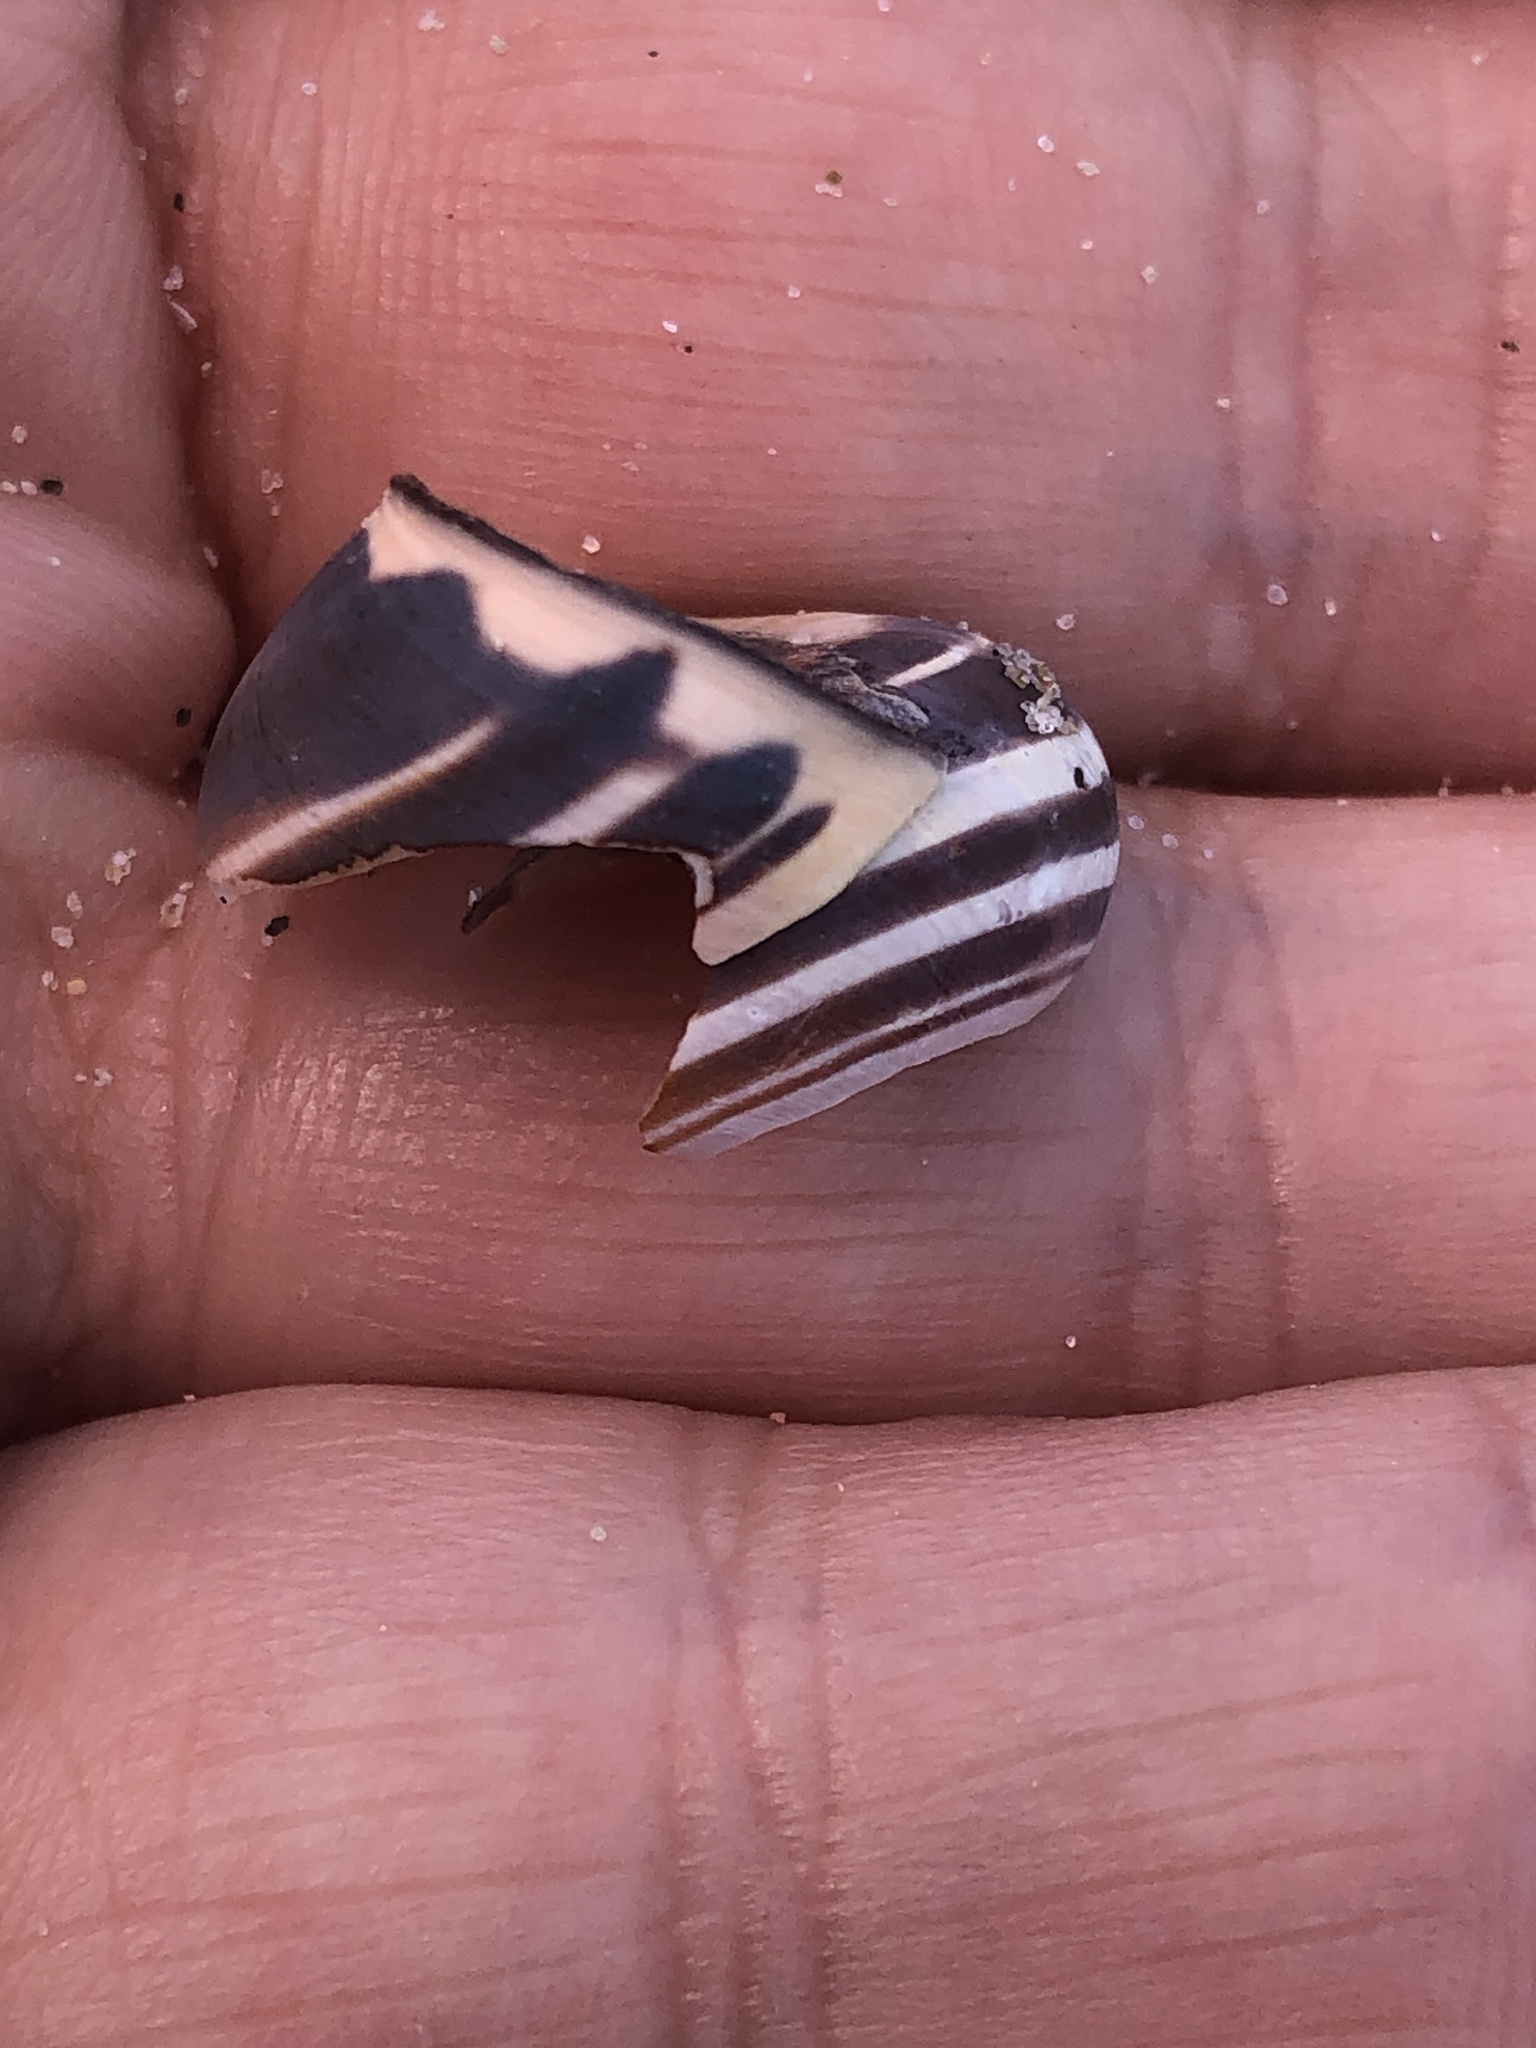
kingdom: Animalia
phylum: Mollusca
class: Gastropoda
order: Stylommatophora
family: Helicidae
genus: Cepaea
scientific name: Cepaea nemoralis
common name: Grovesnail
